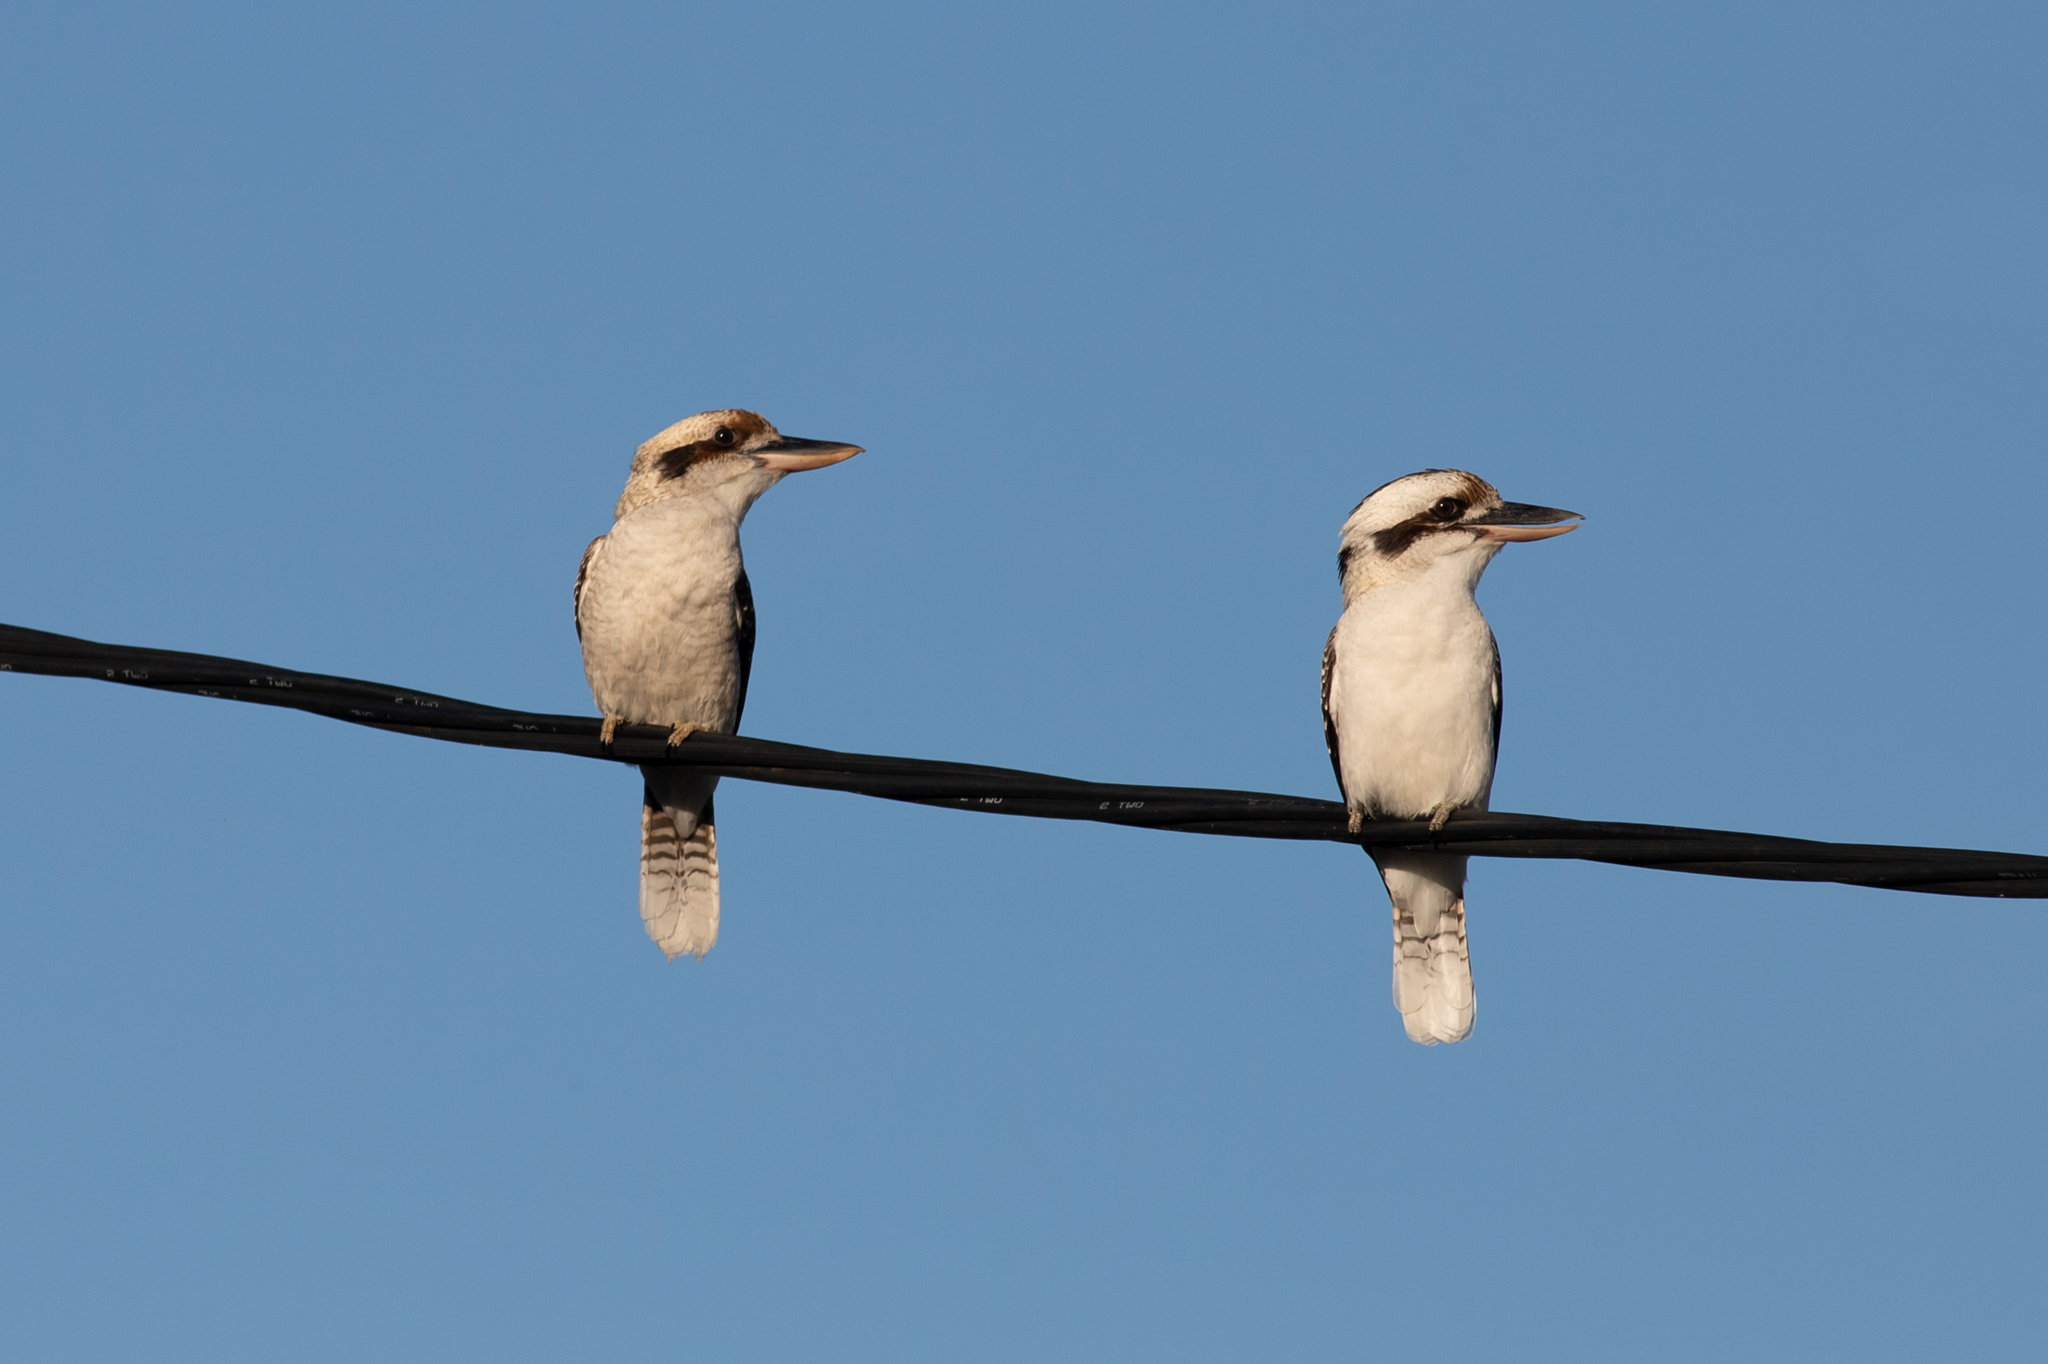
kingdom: Animalia
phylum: Chordata
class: Aves
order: Coraciiformes
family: Alcedinidae
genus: Dacelo
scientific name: Dacelo novaeguineae
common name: Laughing kookaburra
